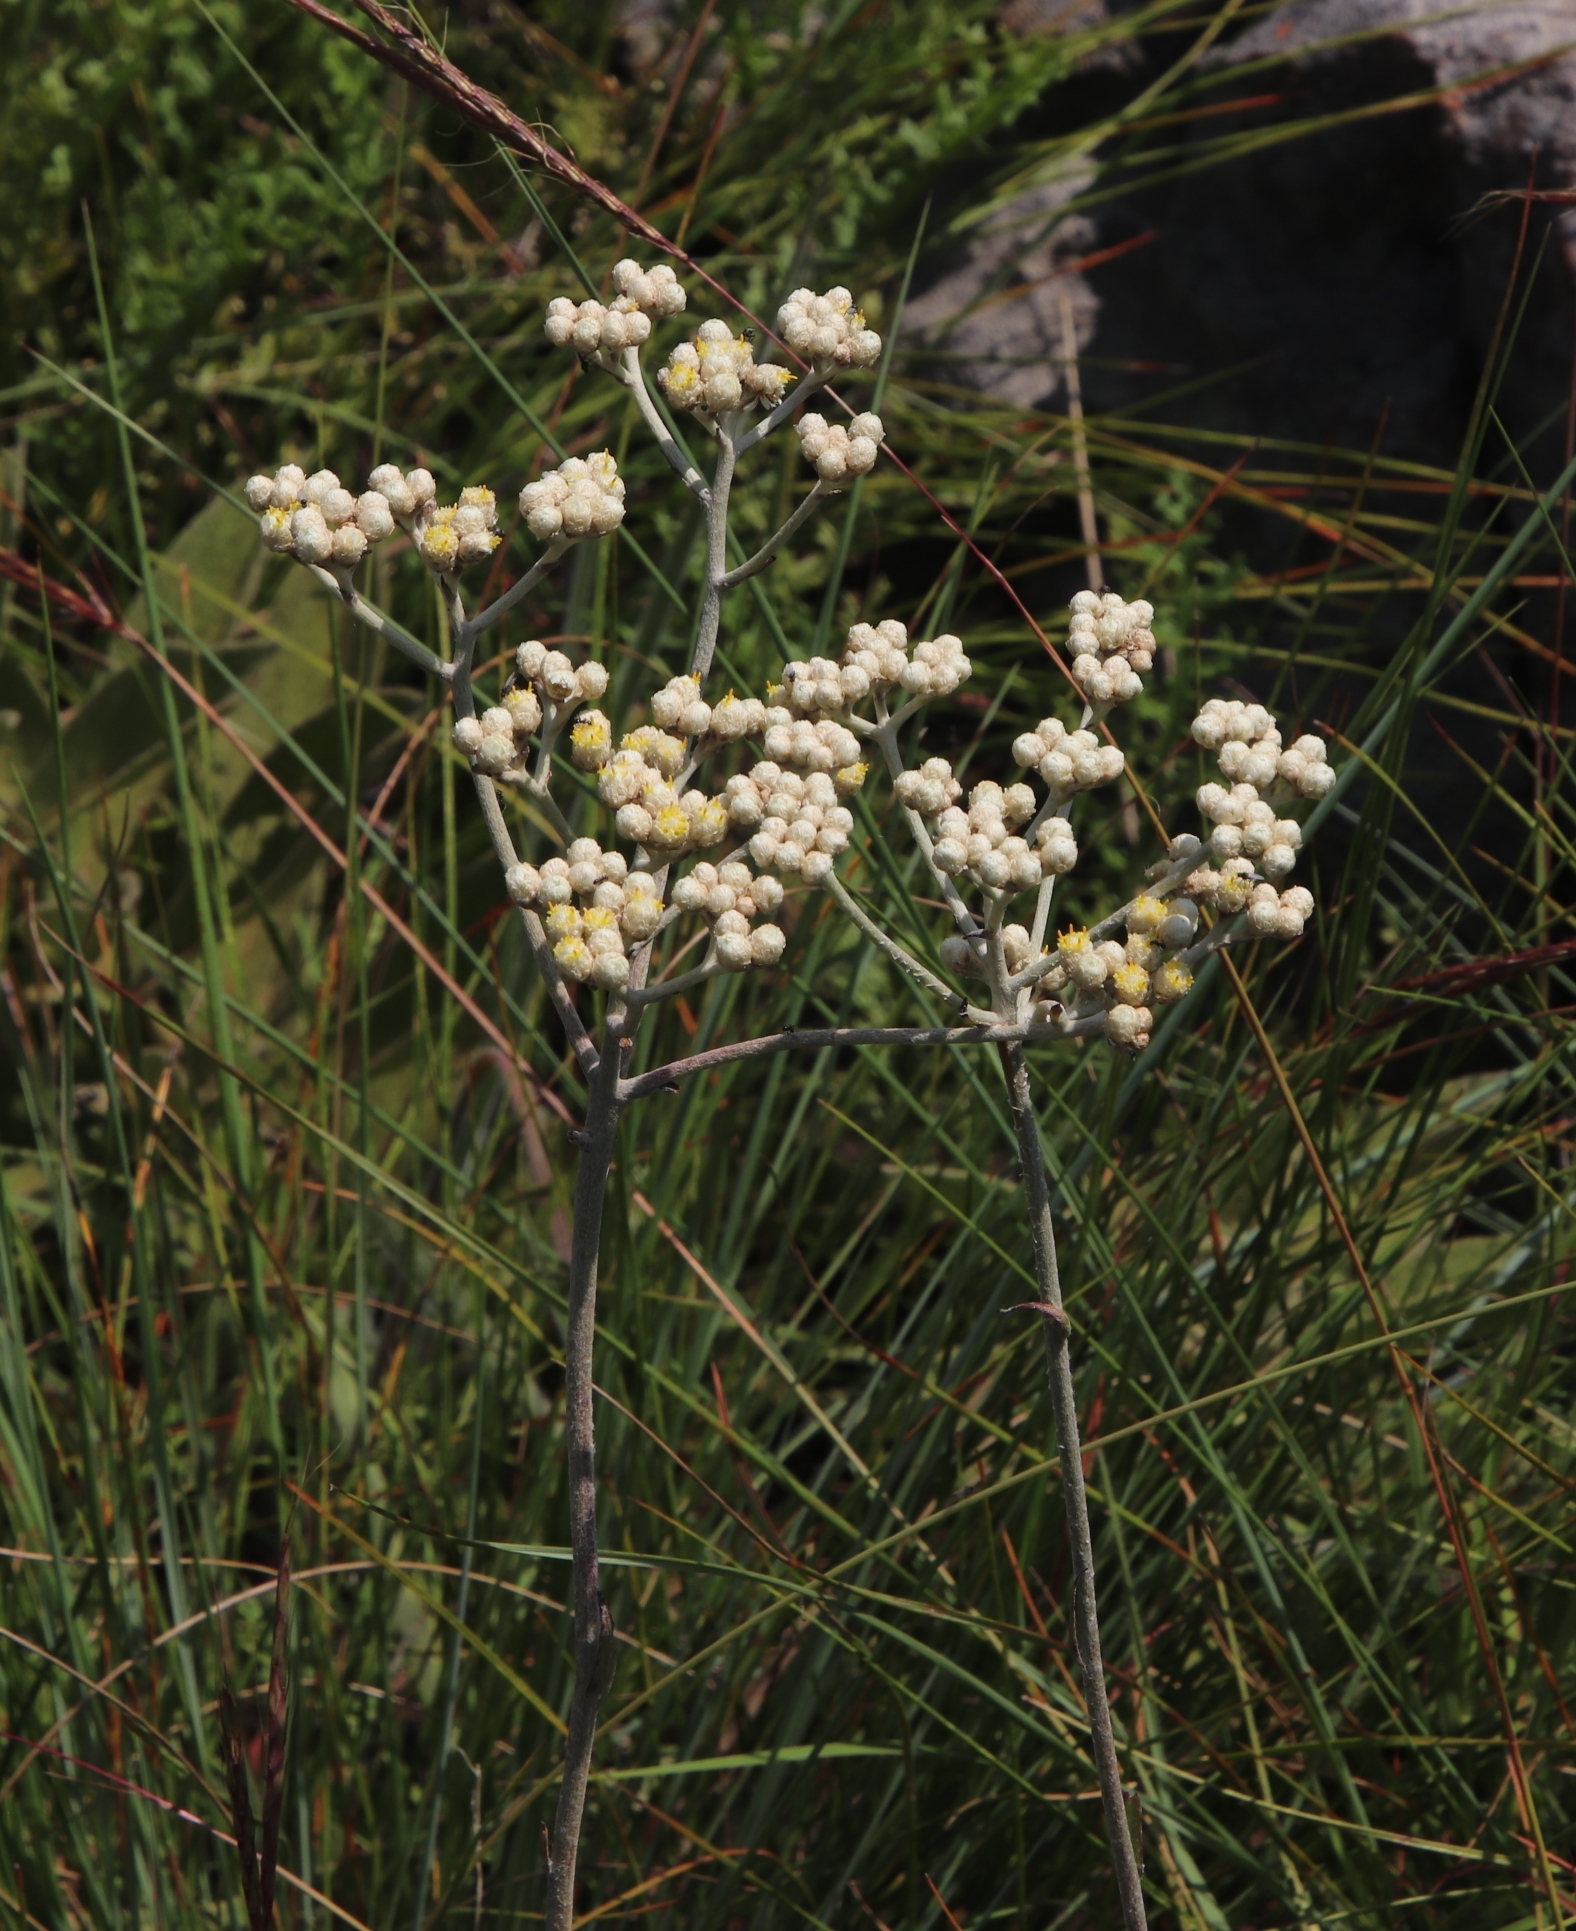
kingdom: Plantae
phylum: Tracheophyta
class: Magnoliopsida
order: Asterales
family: Asteraceae
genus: Helichrysum
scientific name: Helichrysum platypterum
